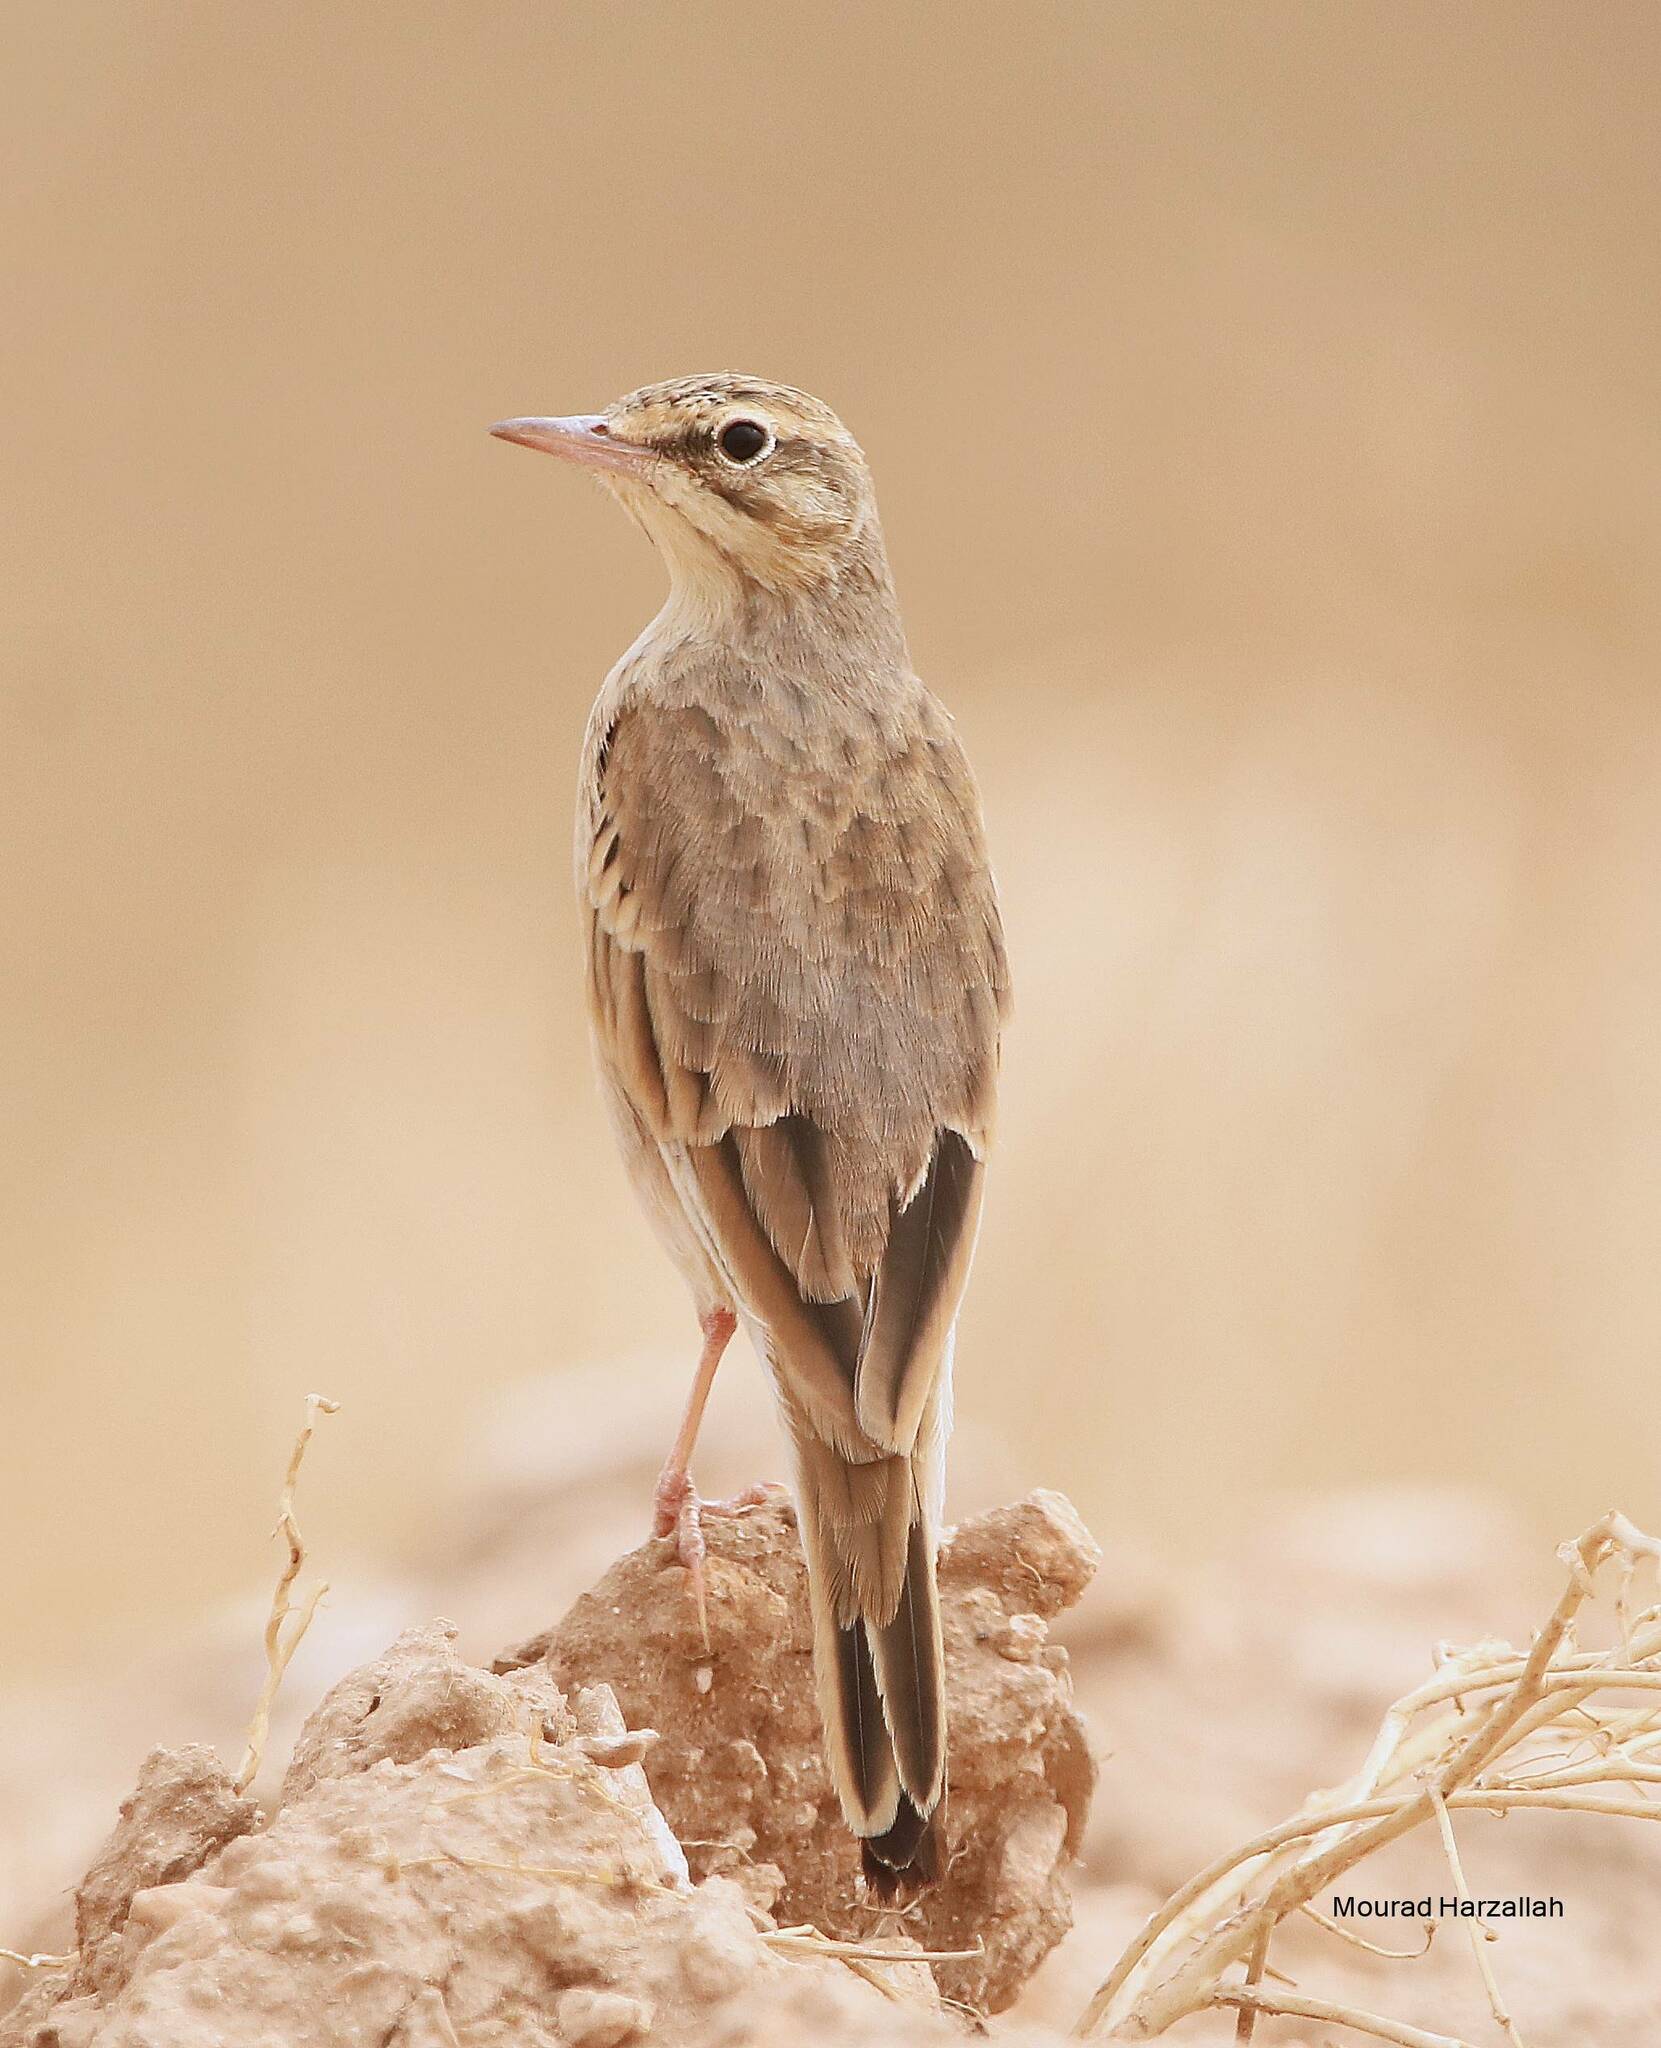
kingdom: Animalia
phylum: Chordata
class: Aves
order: Passeriformes
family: Motacillidae
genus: Anthus
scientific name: Anthus campestris
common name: Tawny pipit
